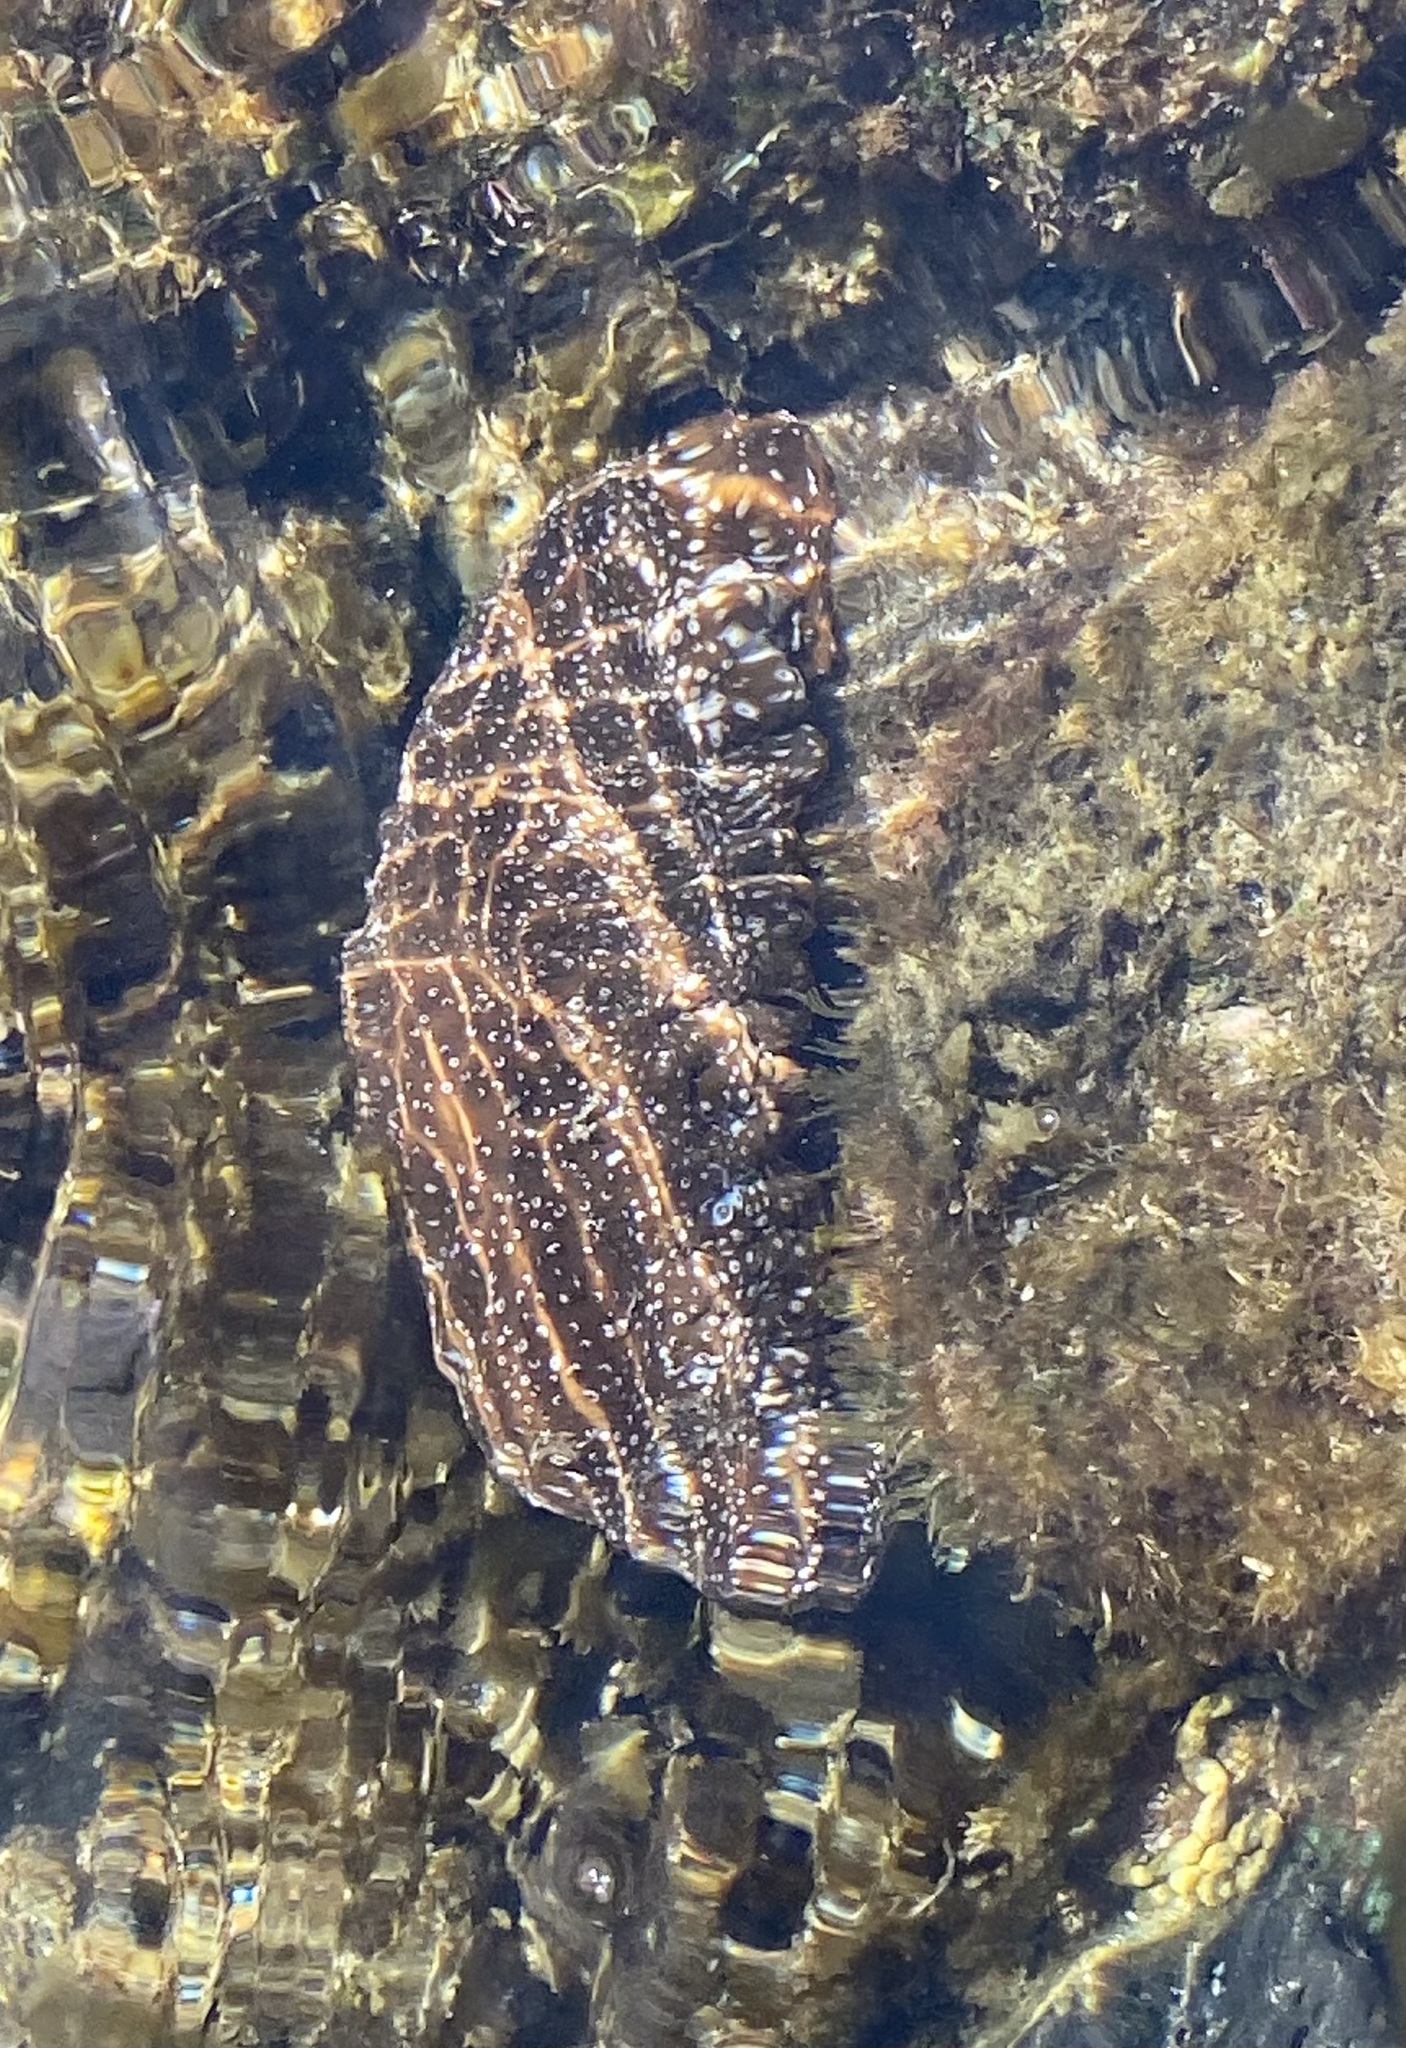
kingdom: Animalia
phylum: Echinodermata
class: Holothuroidea
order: Holothuriida
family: Holothuriidae
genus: Actinopyga
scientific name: Actinopyga varians
